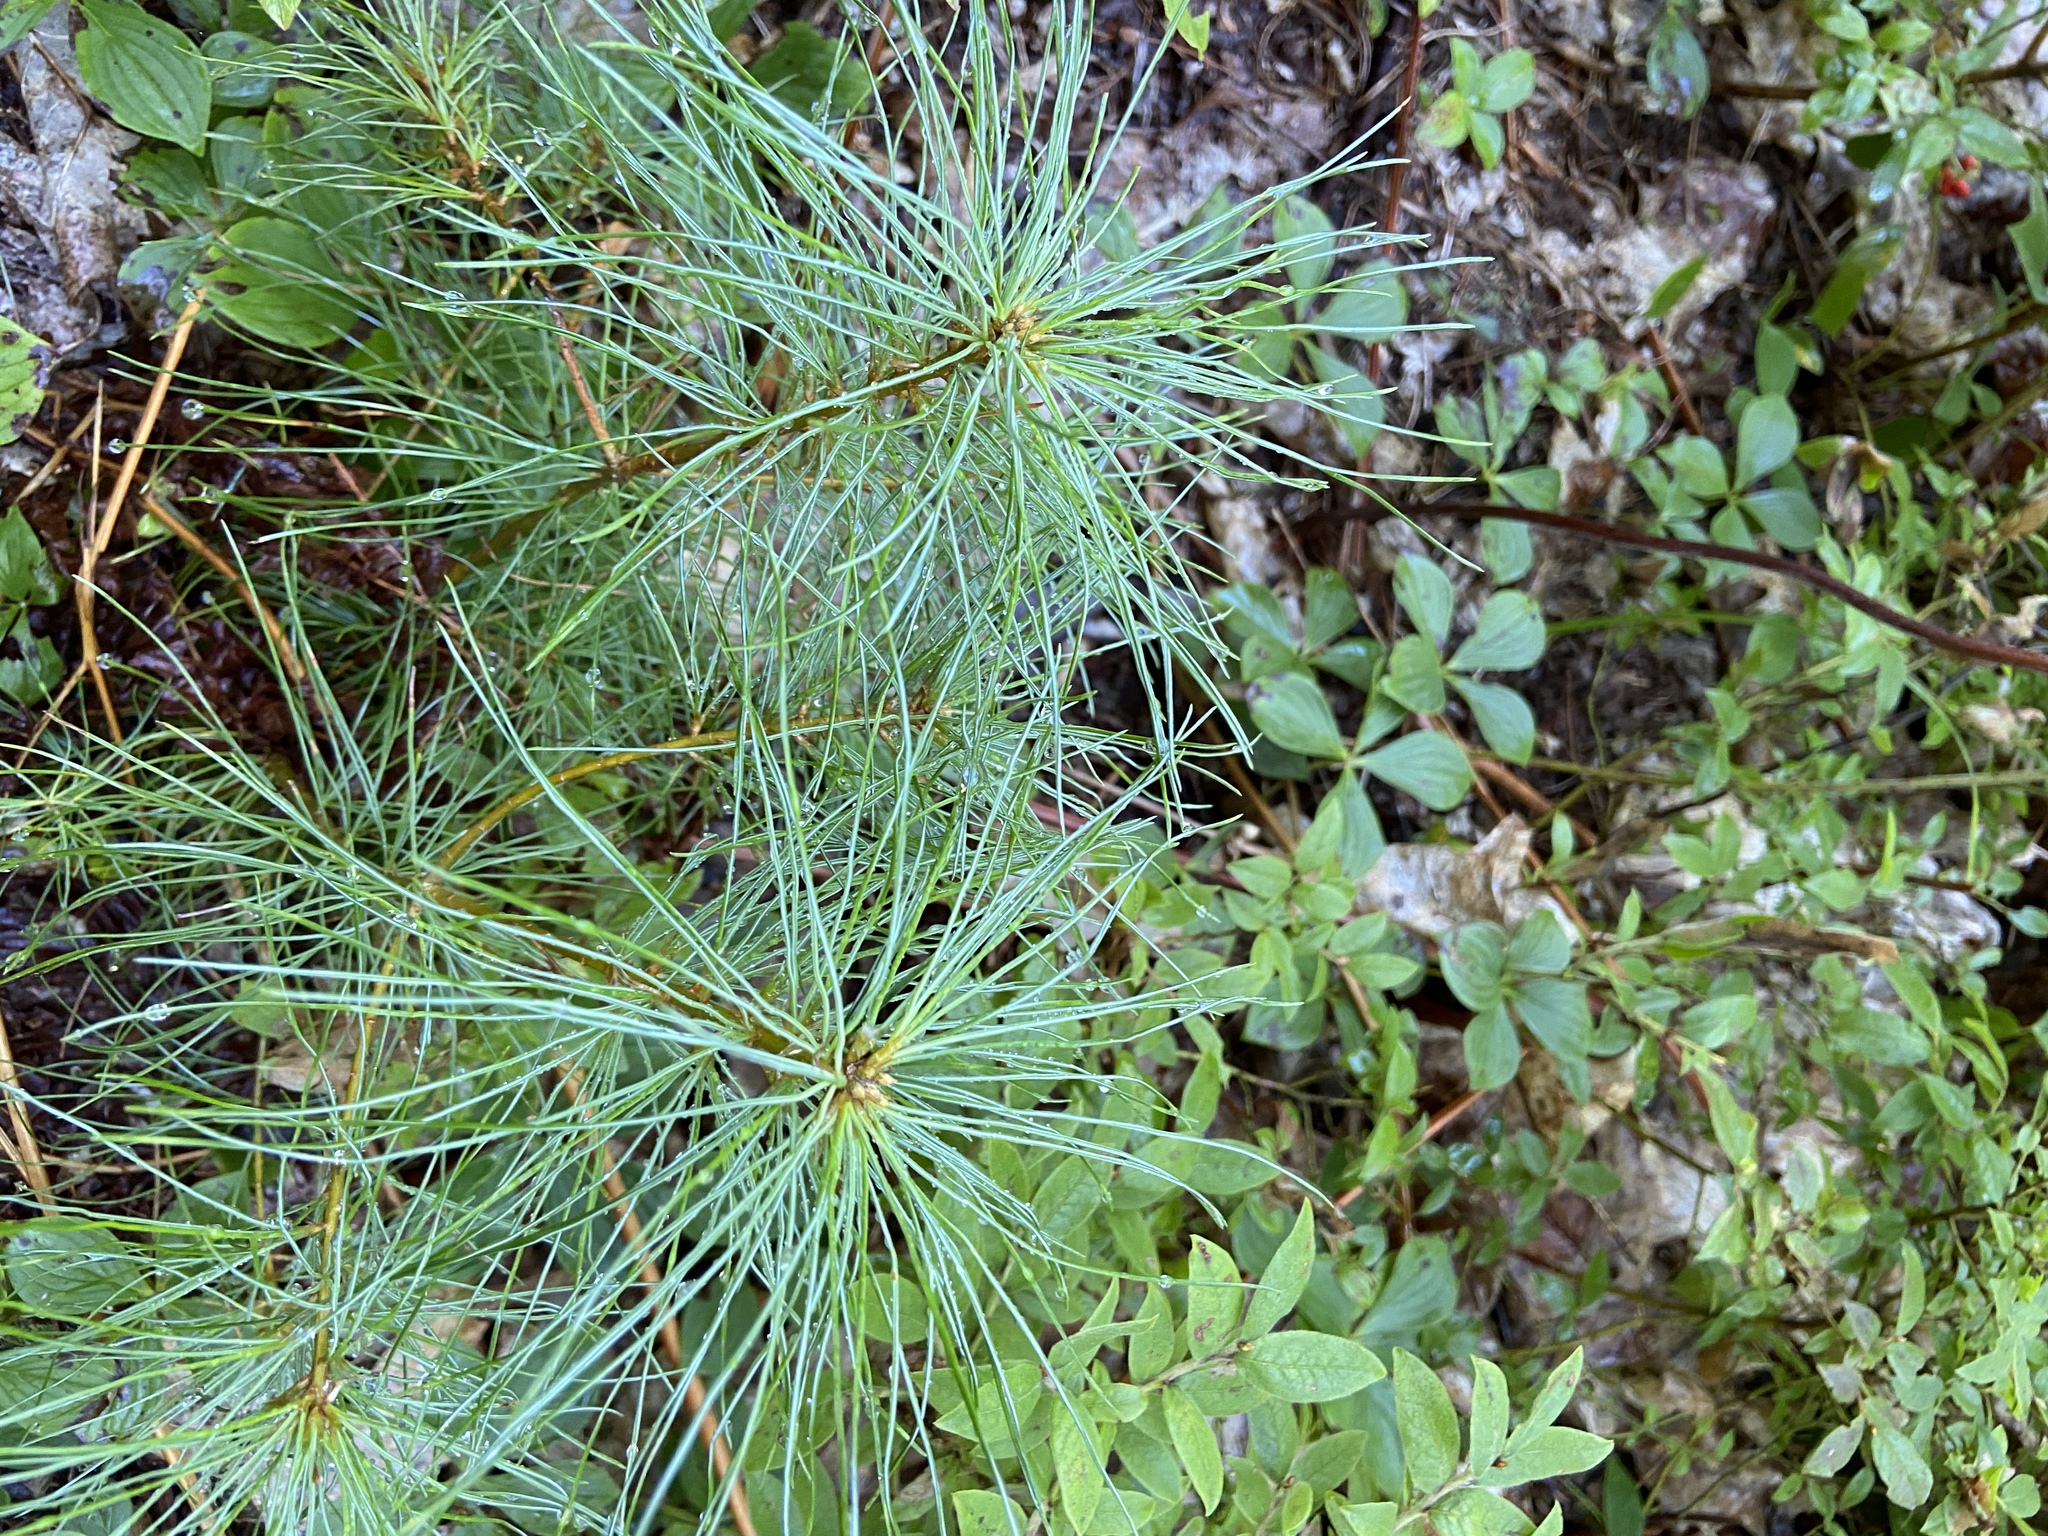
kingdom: Plantae
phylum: Tracheophyta
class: Pinopsida
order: Pinales
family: Pinaceae
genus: Pinus
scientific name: Pinus strobus
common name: Weymouth pine
